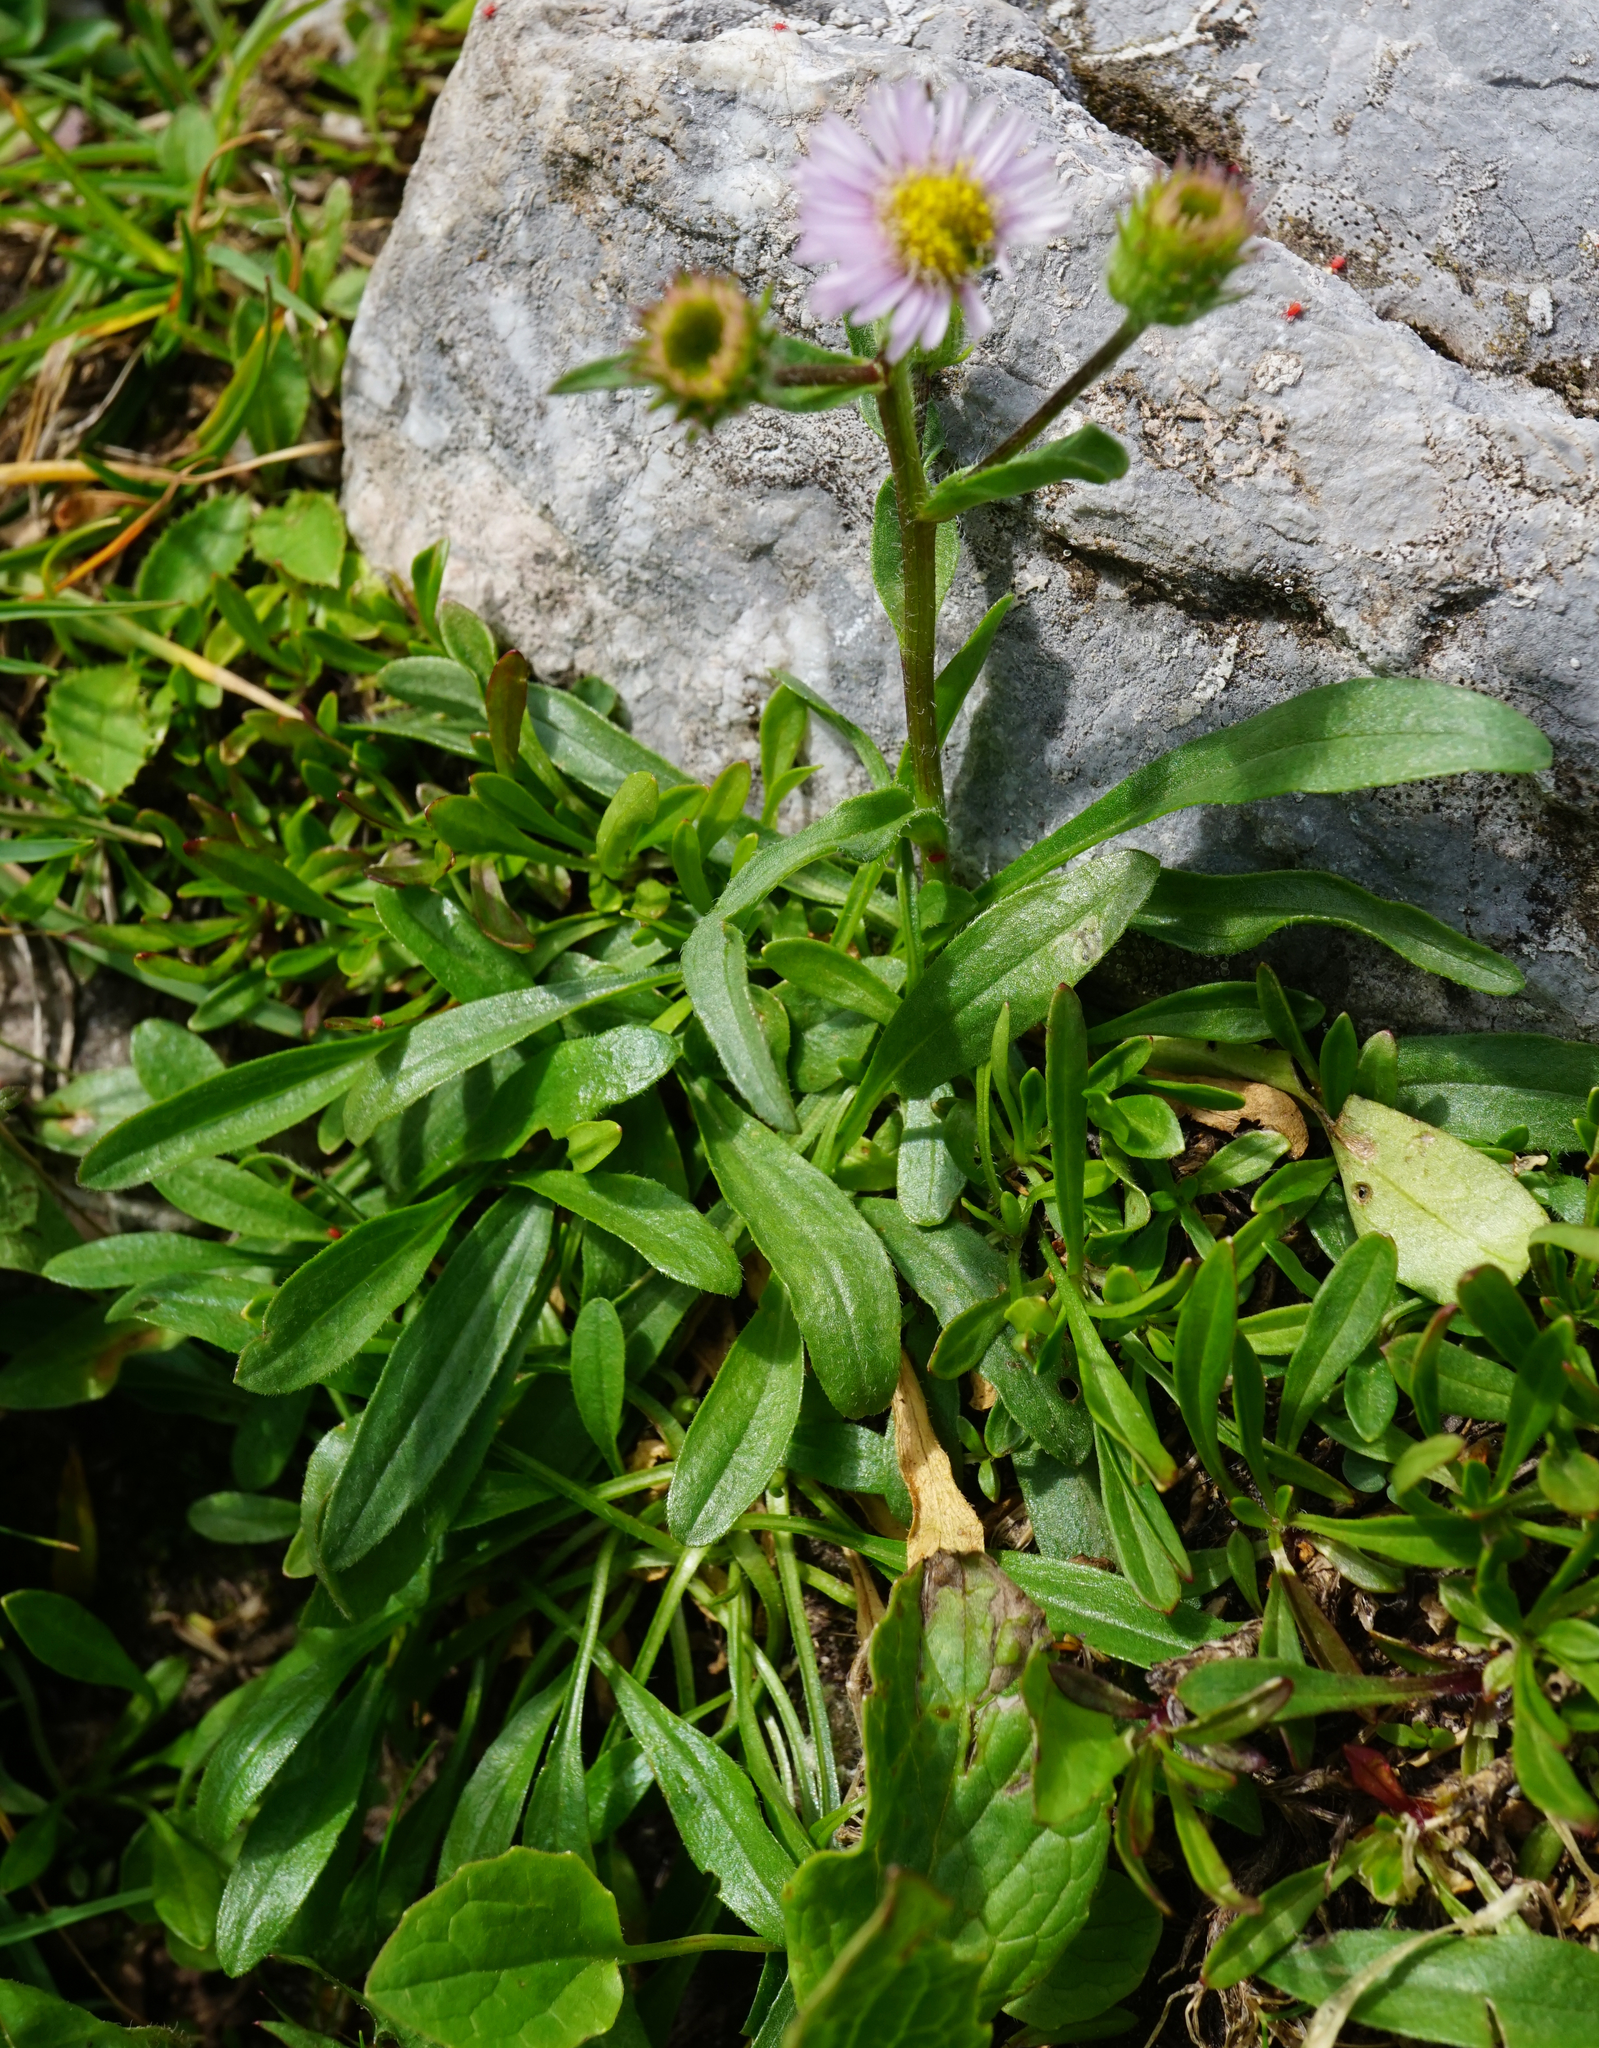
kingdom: Plantae
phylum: Tracheophyta
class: Magnoliopsida
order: Asterales
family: Asteraceae
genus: Erigeron
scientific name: Erigeron glabratus
